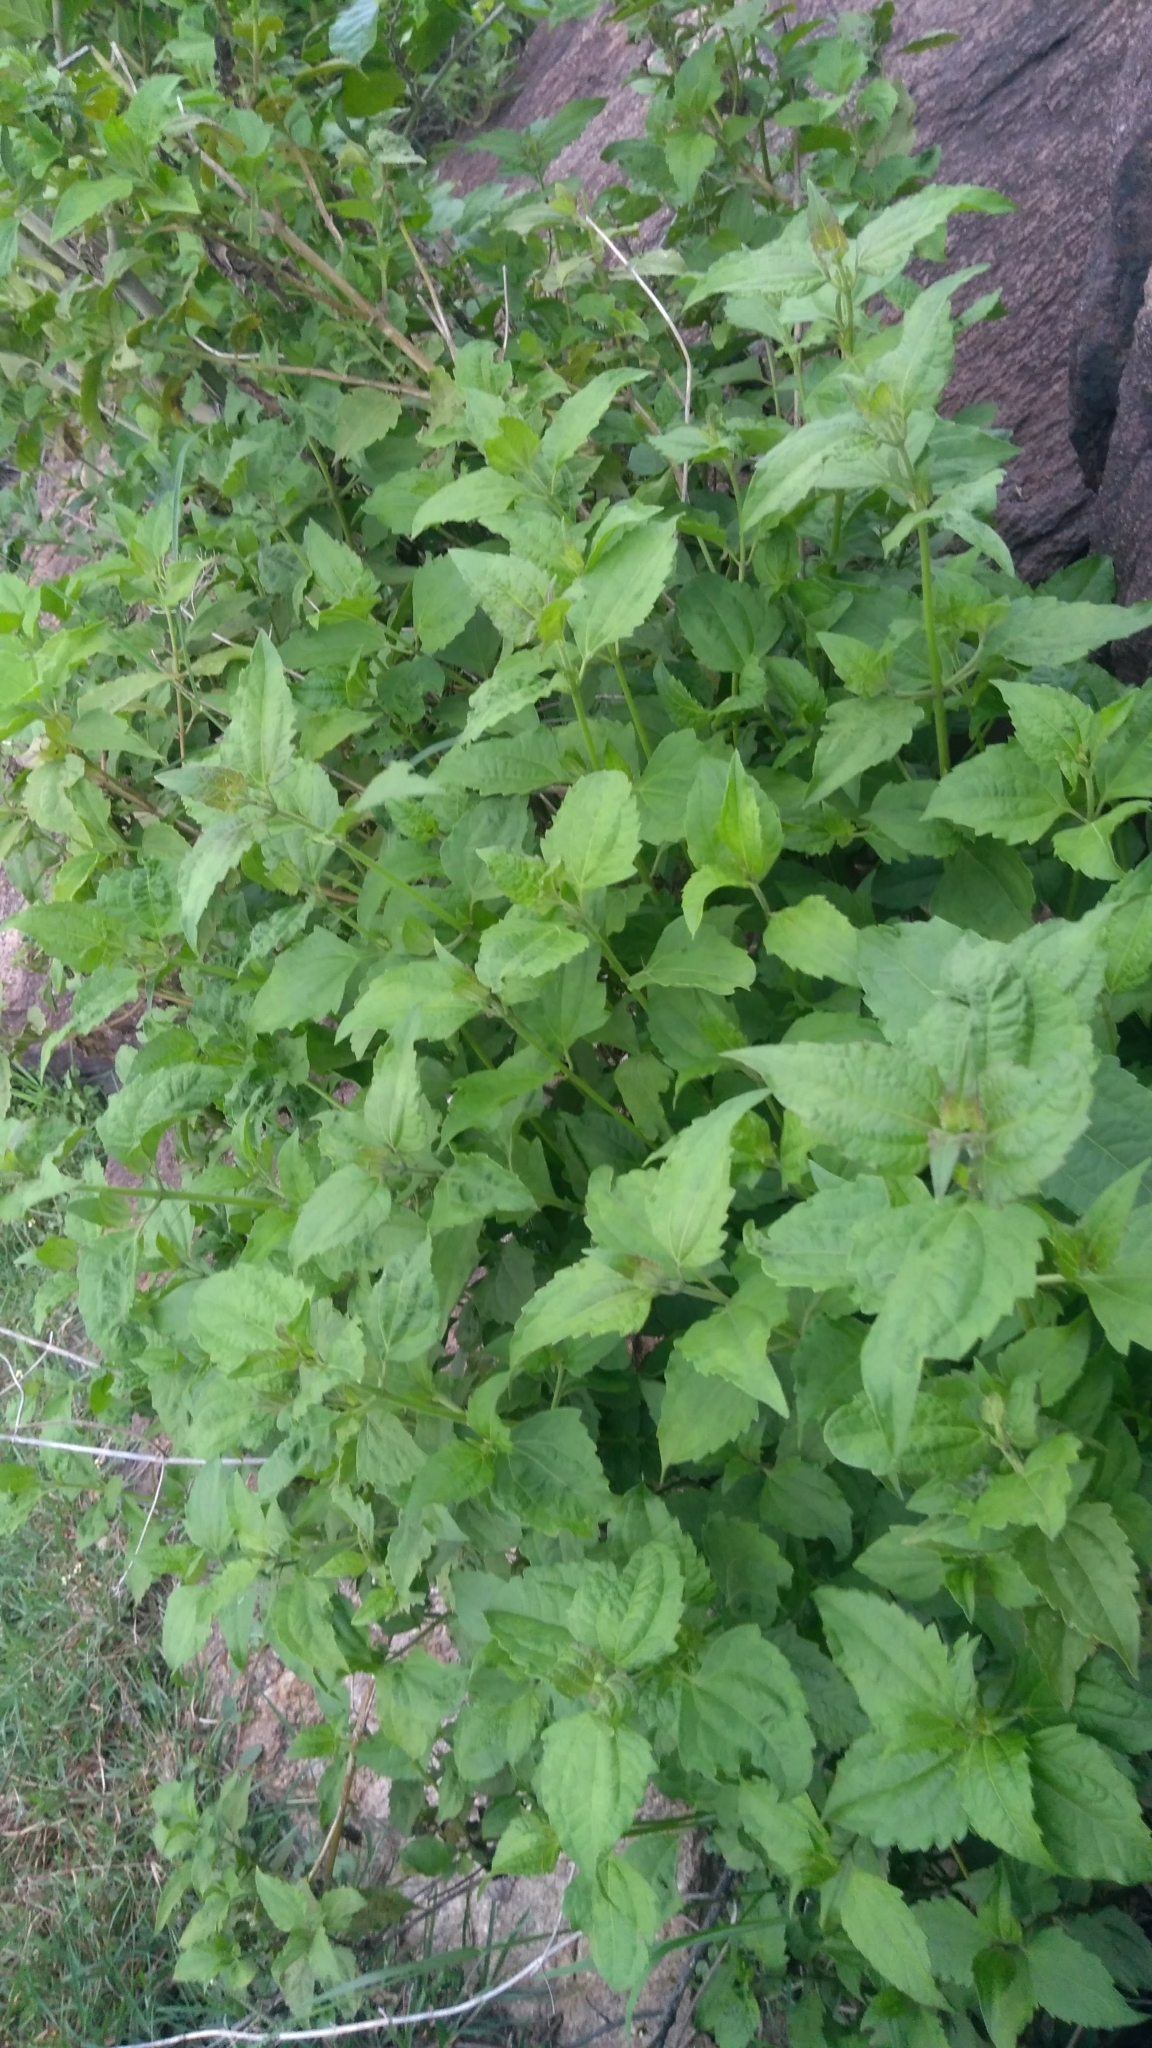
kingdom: Plantae
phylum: Tracheophyta
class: Magnoliopsida
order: Asterales
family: Asteraceae
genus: Chromolaena
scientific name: Chromolaena odorata
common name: Siamweed
